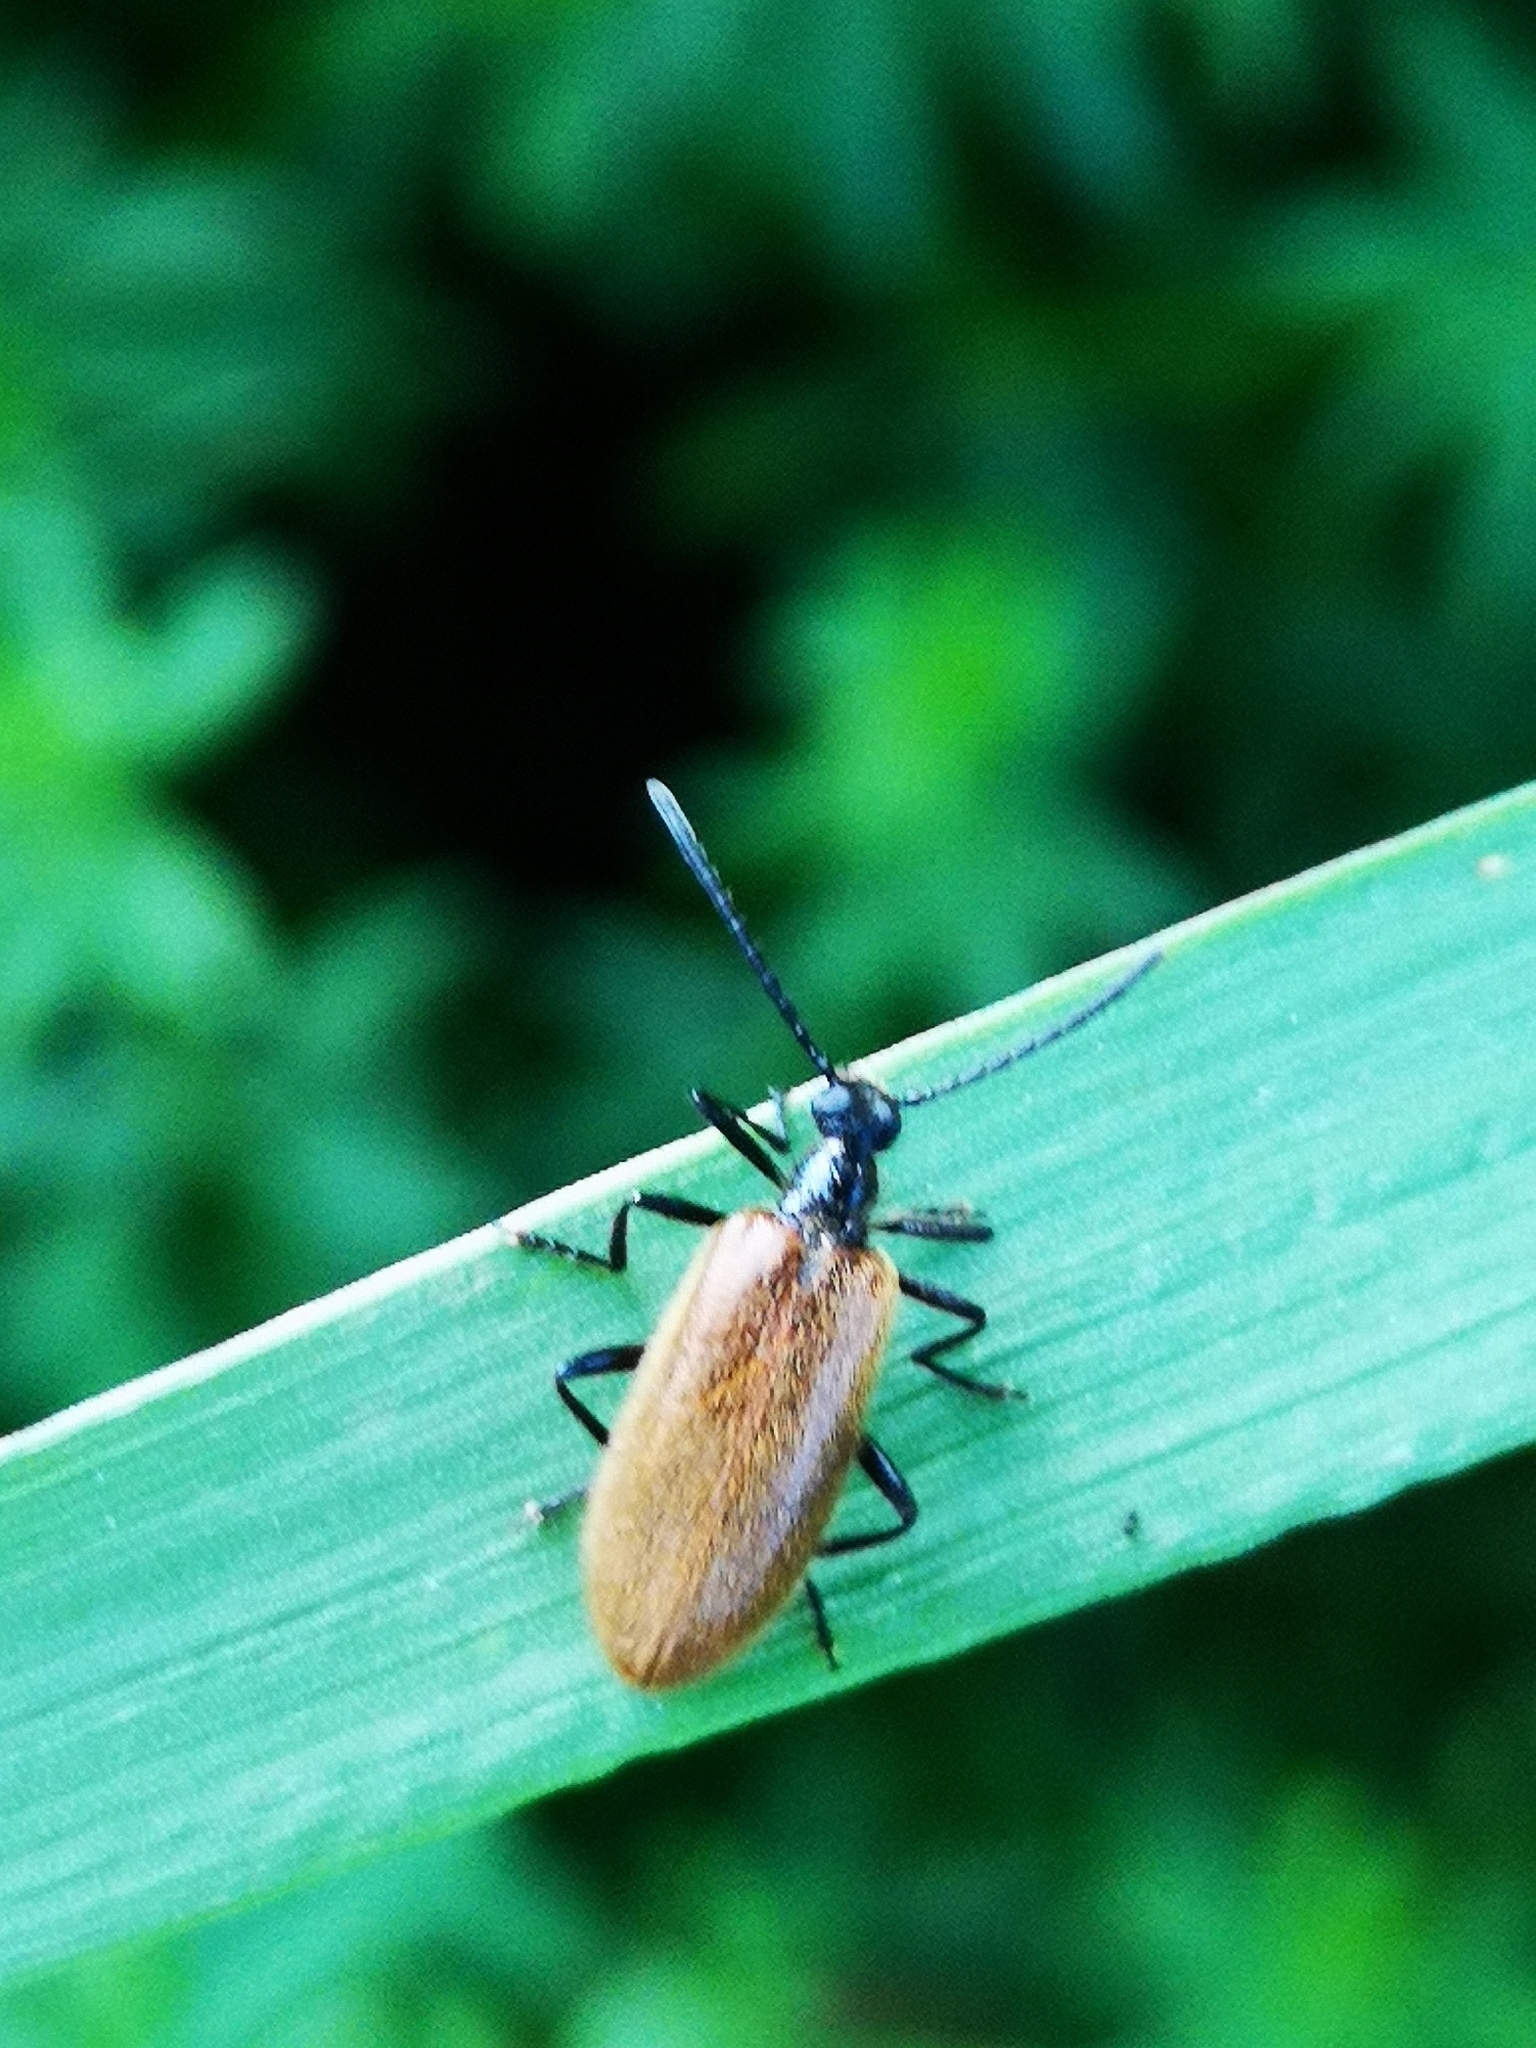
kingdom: Animalia
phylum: Arthropoda
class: Insecta
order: Coleoptera
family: Tenebrionidae
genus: Lagria
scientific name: Lagria hirta
